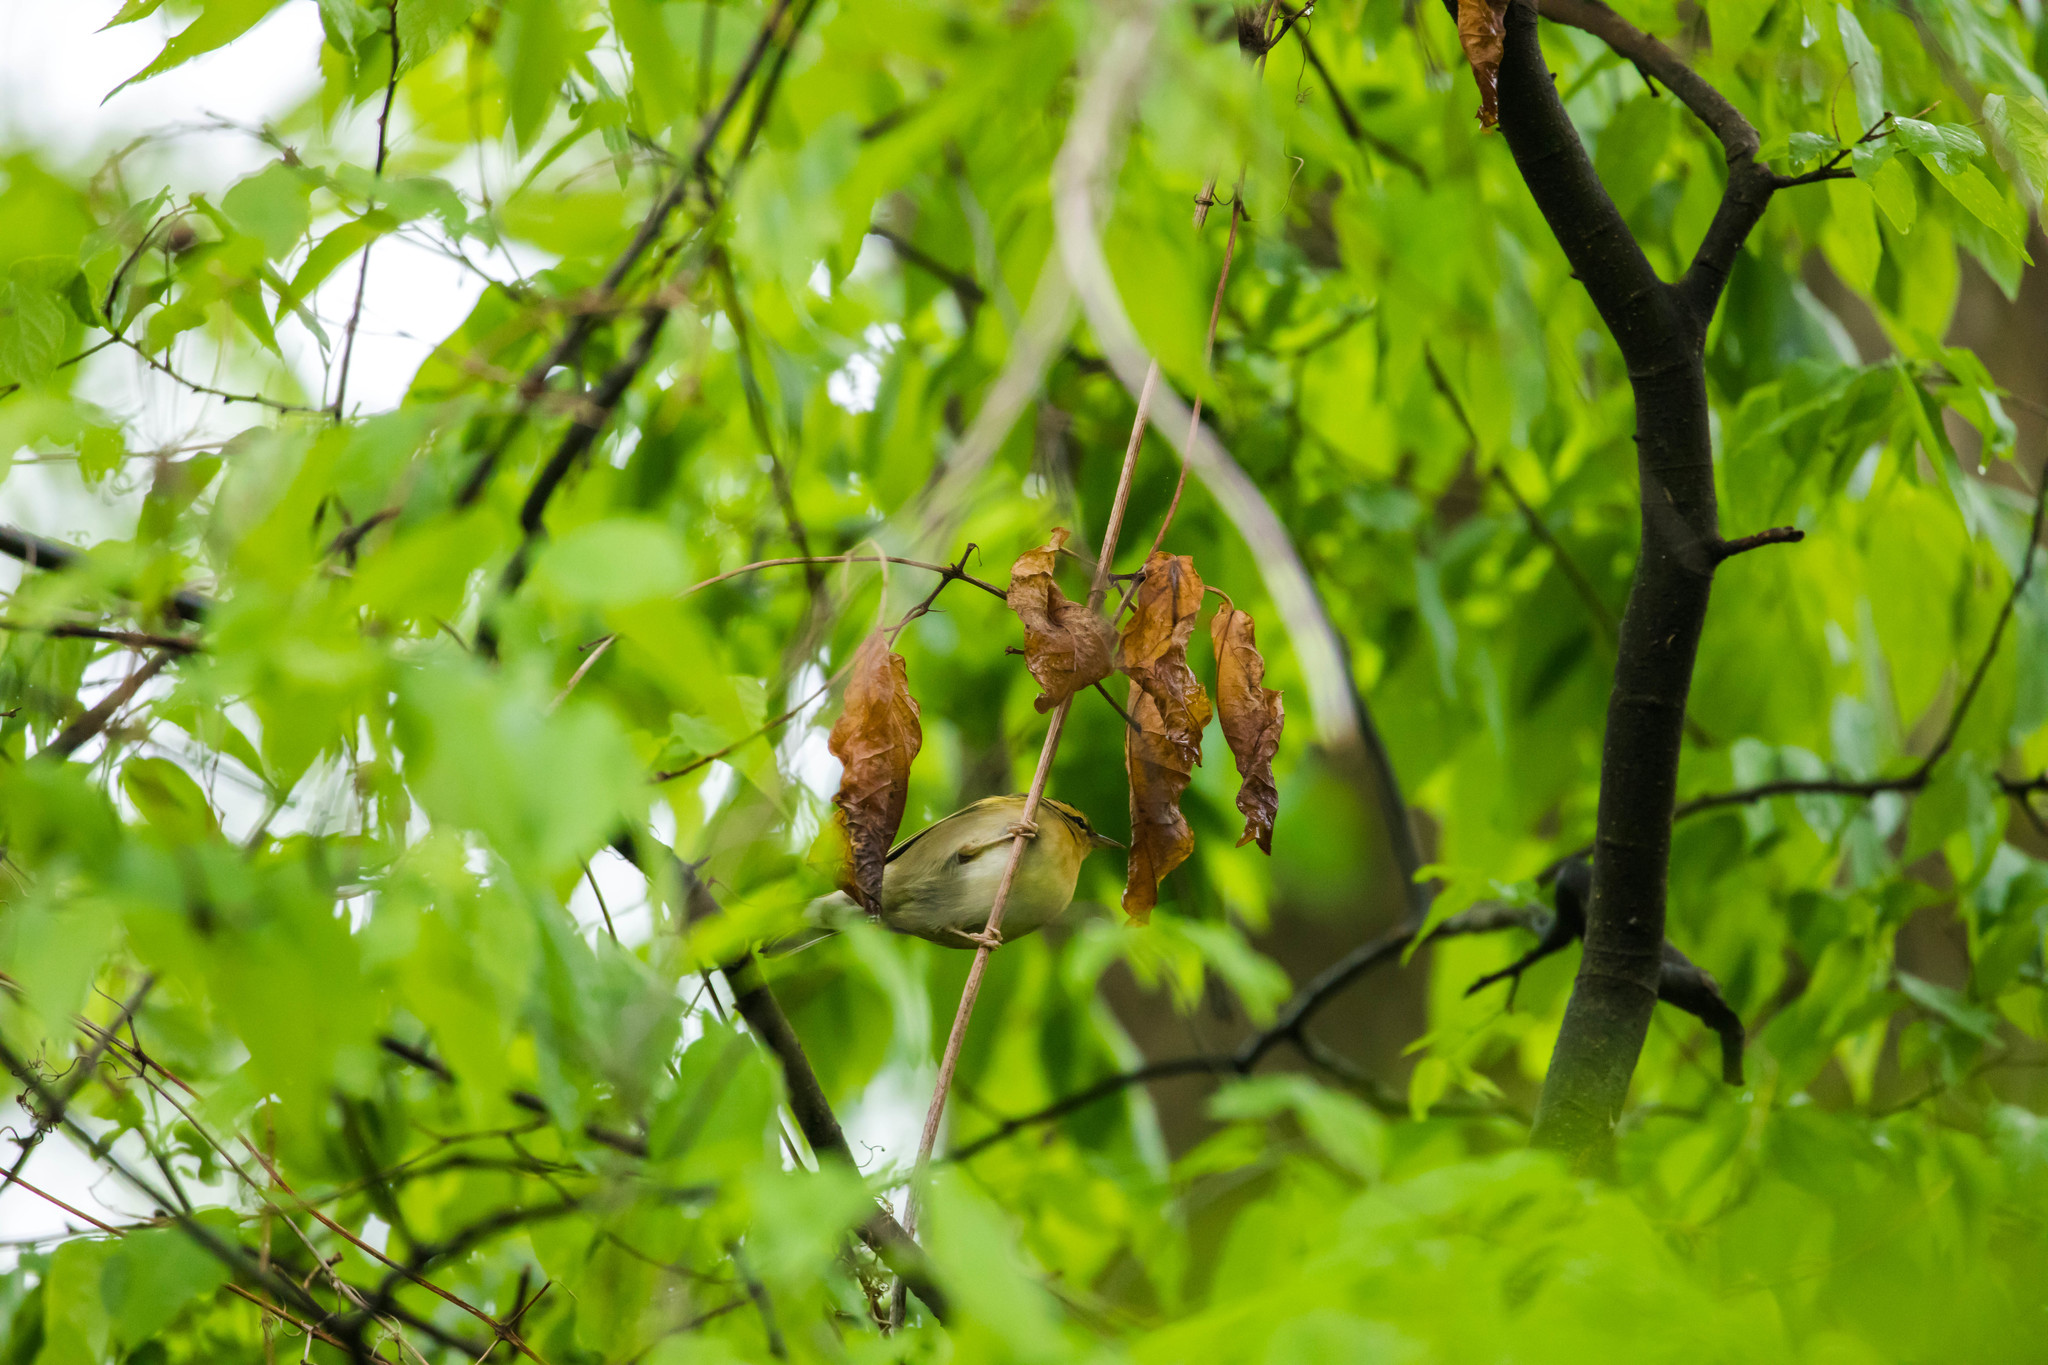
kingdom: Animalia
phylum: Chordata
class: Aves
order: Passeriformes
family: Parulidae
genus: Helmitheros
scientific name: Helmitheros vermivorum
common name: Worm-eating warbler
